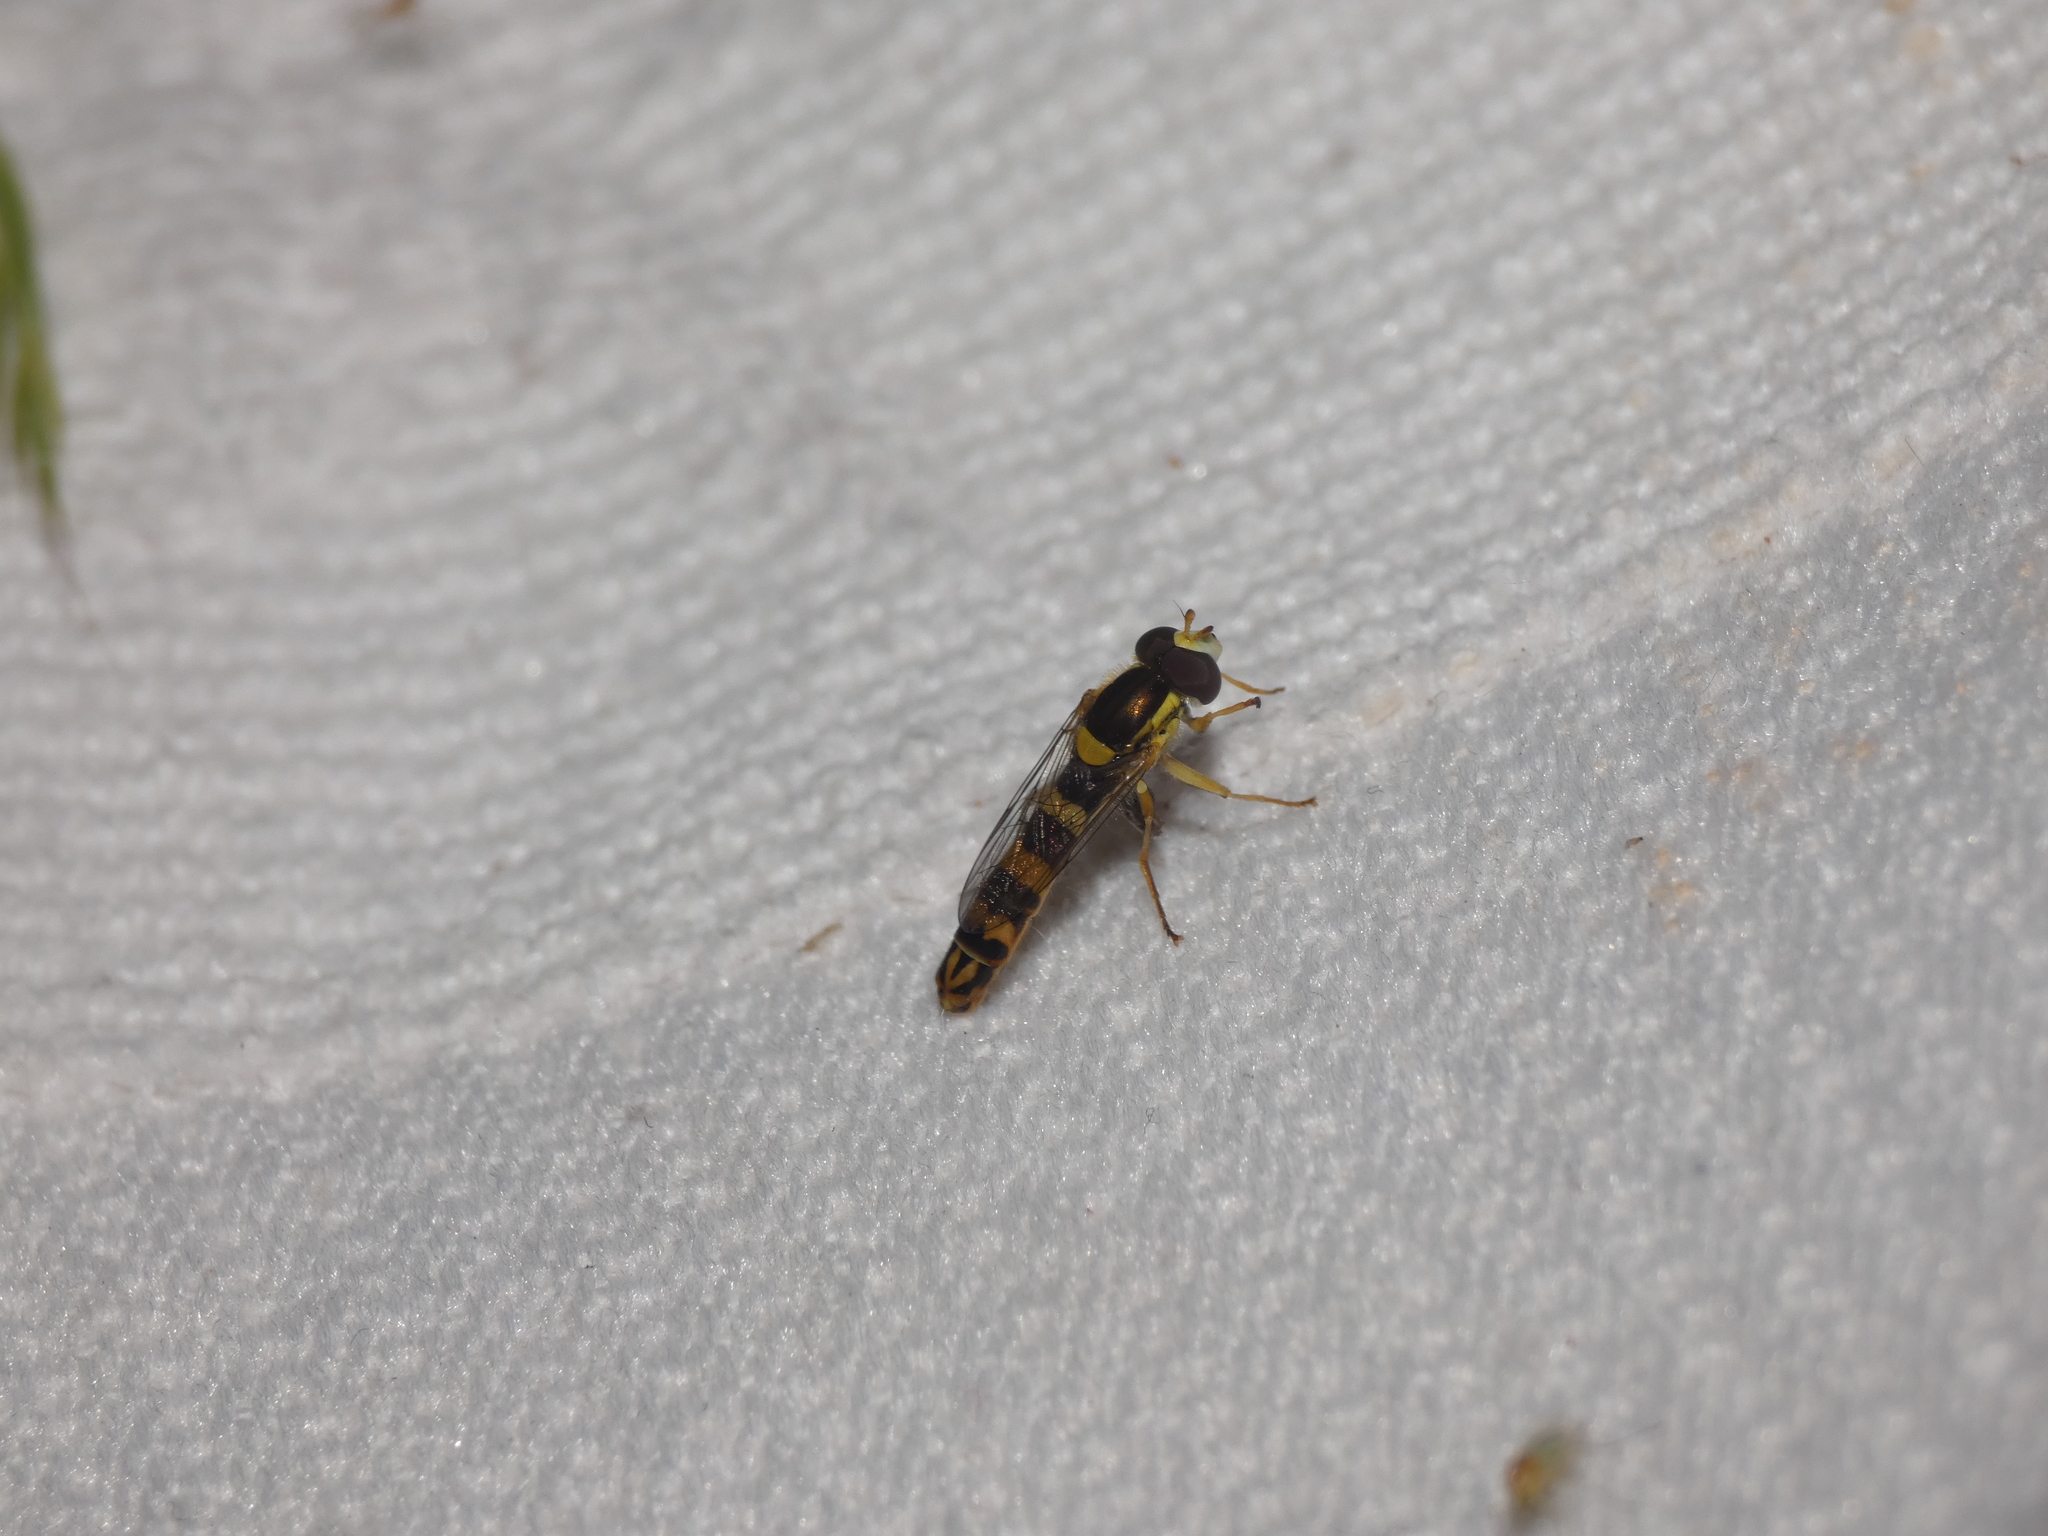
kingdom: Animalia
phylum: Arthropoda
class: Insecta
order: Diptera
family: Syrphidae
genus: Sphaerophoria
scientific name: Sphaerophoria scripta
